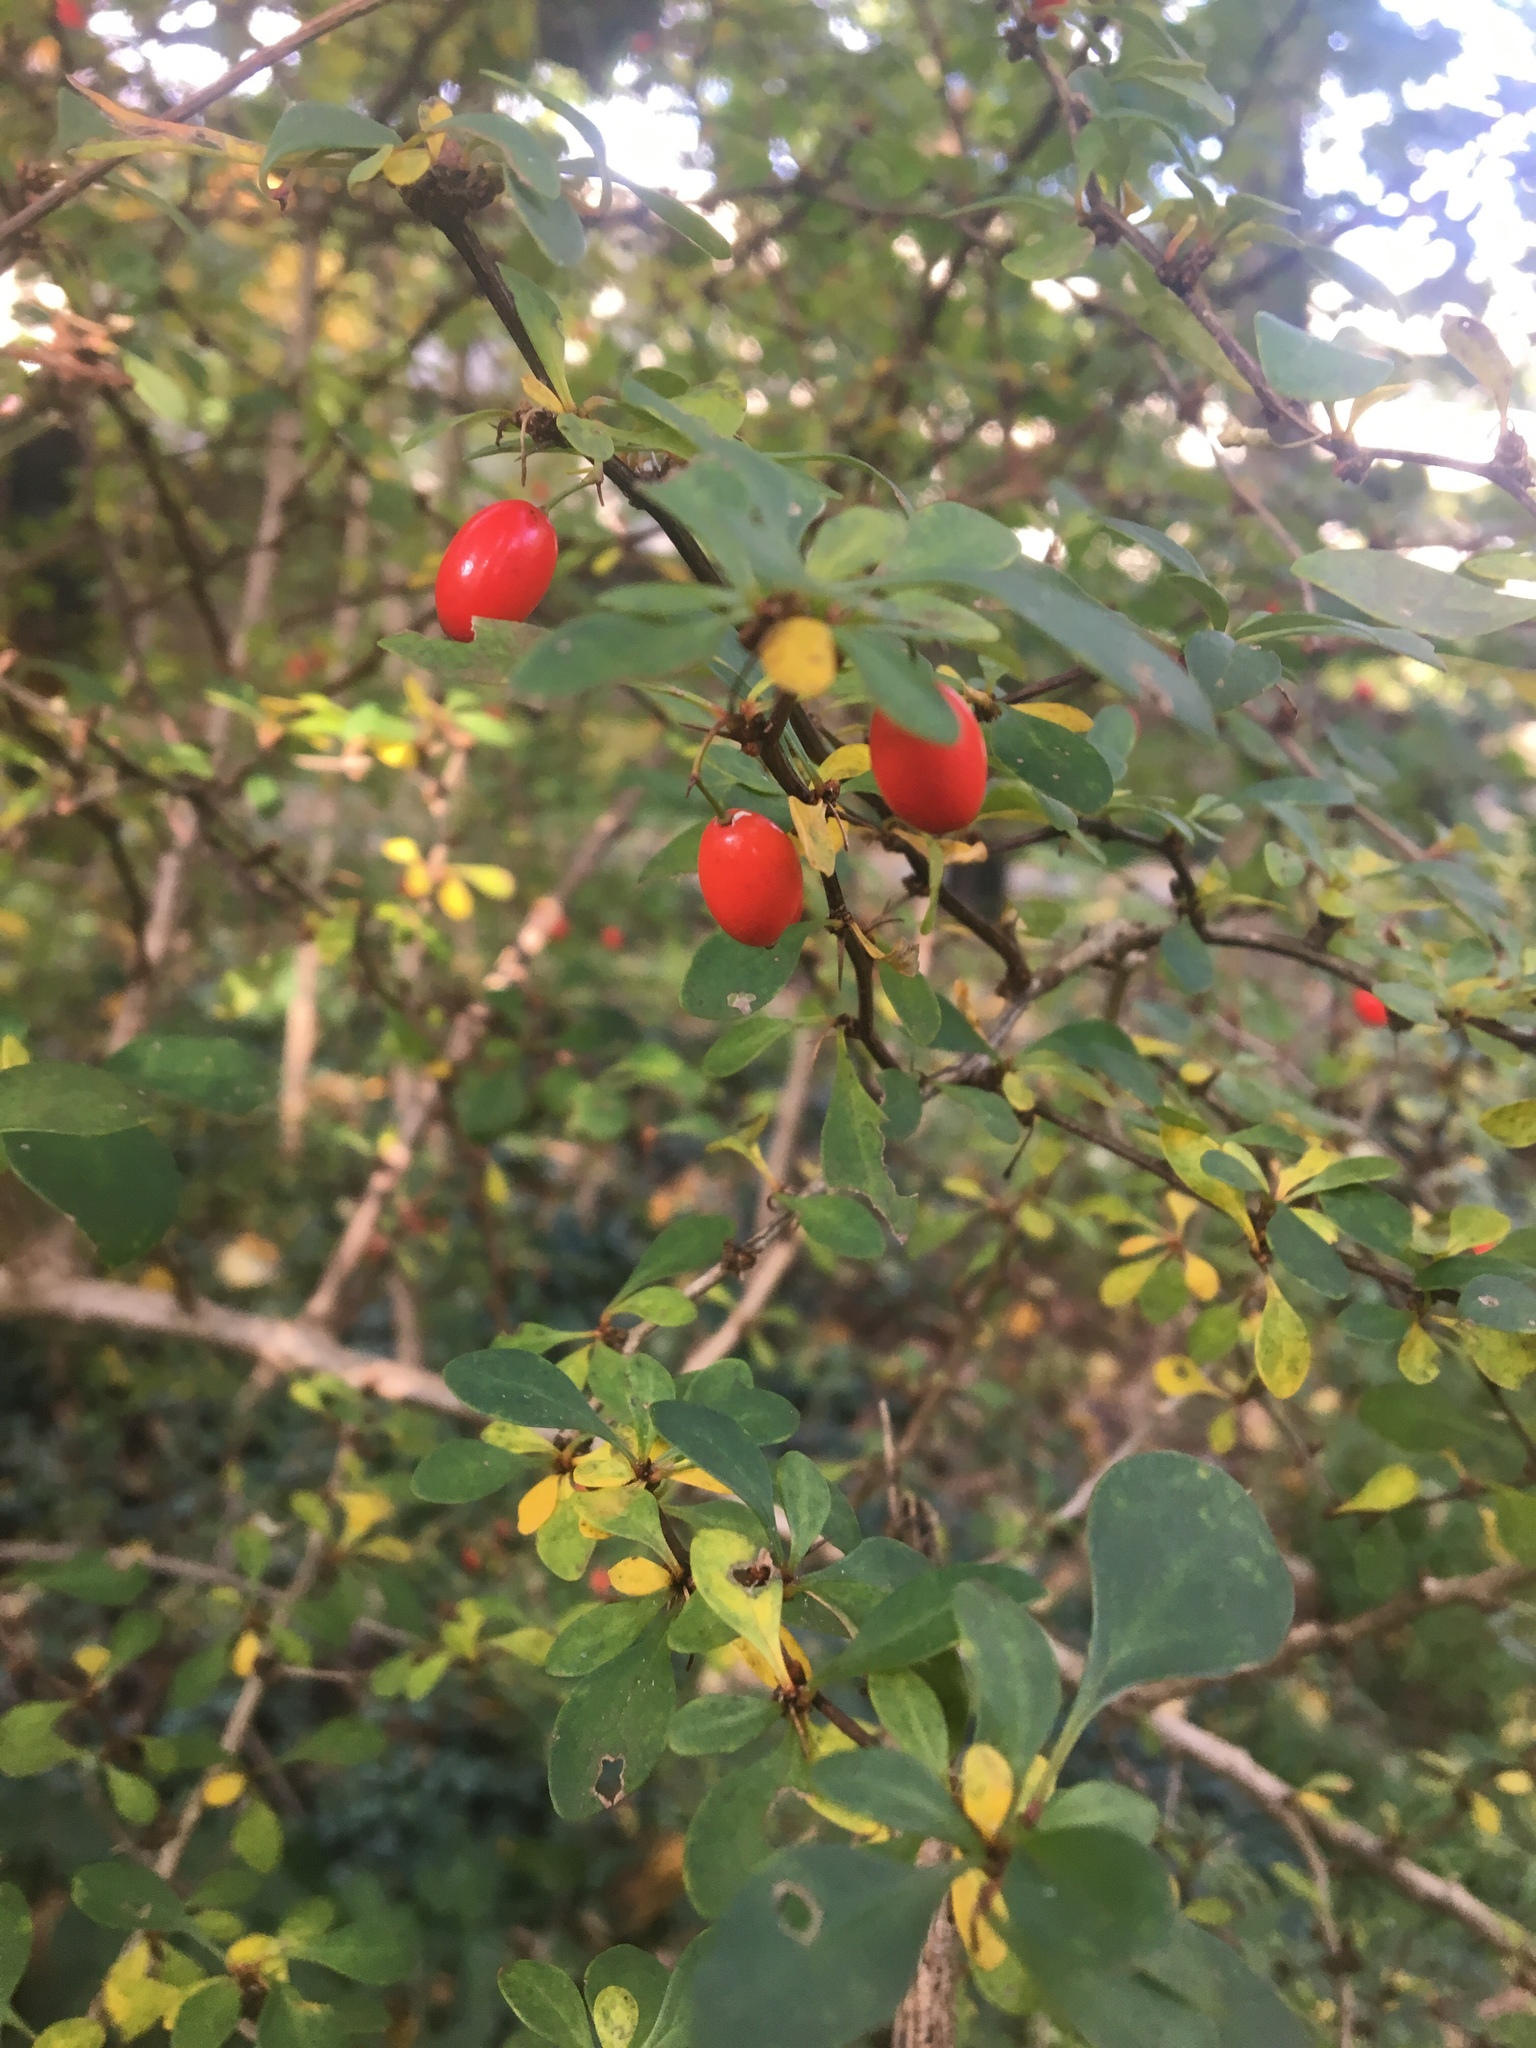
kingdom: Plantae
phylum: Tracheophyta
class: Magnoliopsida
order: Ranunculales
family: Berberidaceae
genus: Berberis
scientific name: Berberis thunbergii
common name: Japanese barberry
